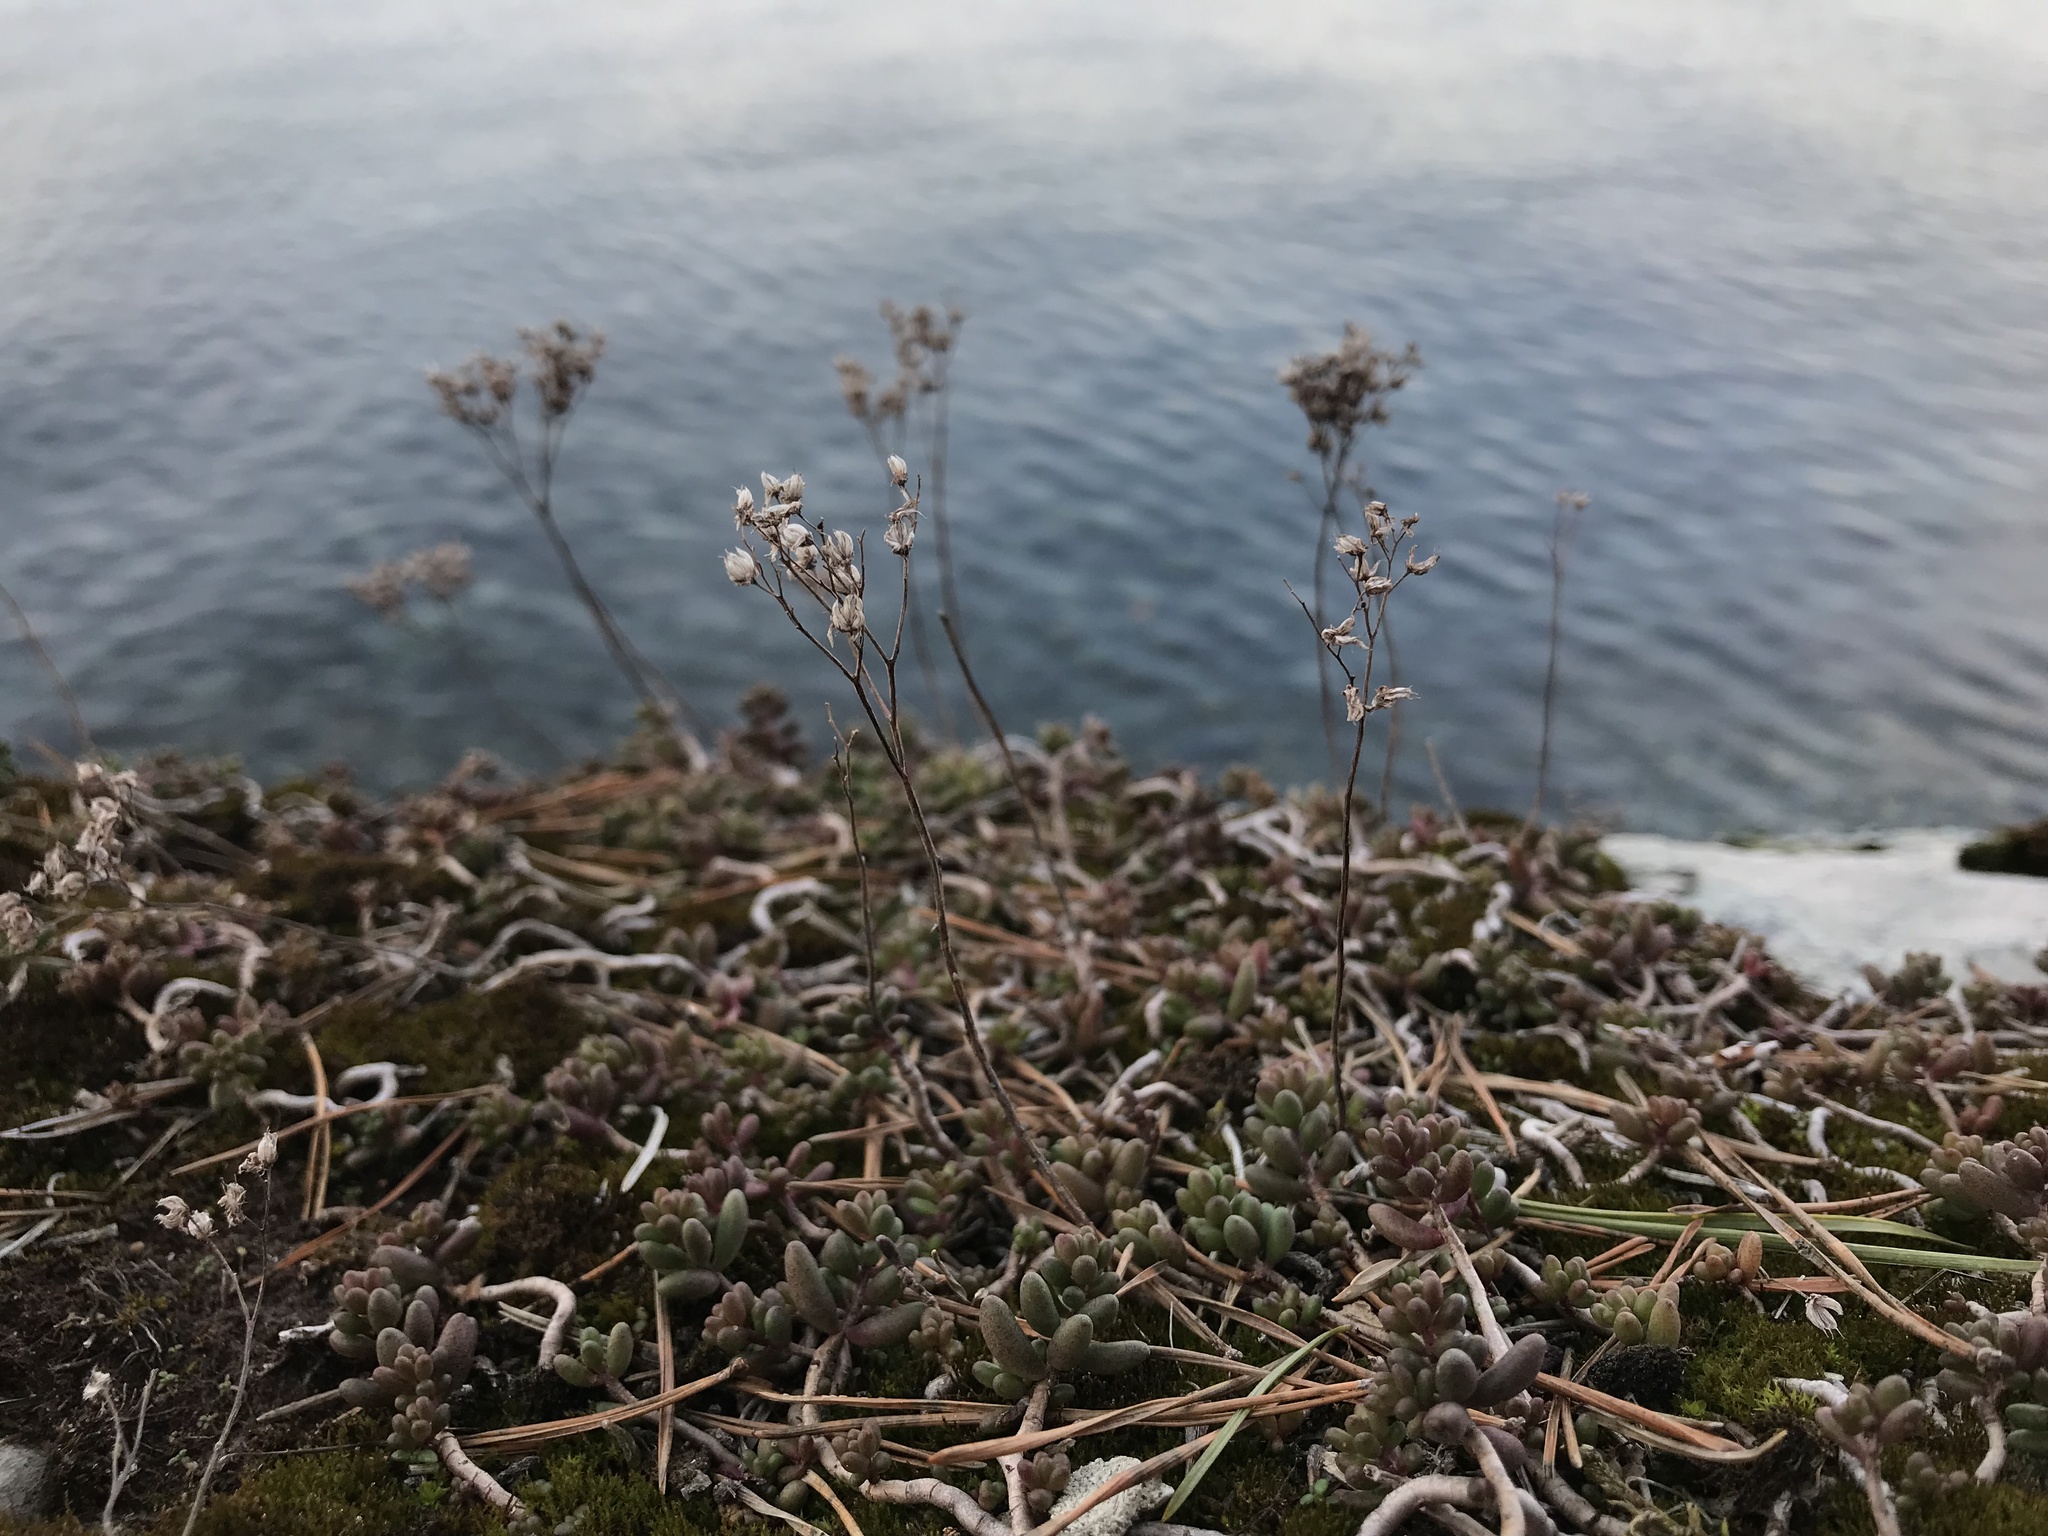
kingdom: Plantae
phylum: Tracheophyta
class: Magnoliopsida
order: Saxifragales
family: Crassulaceae
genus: Sedum
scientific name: Sedum album
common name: White stonecrop
